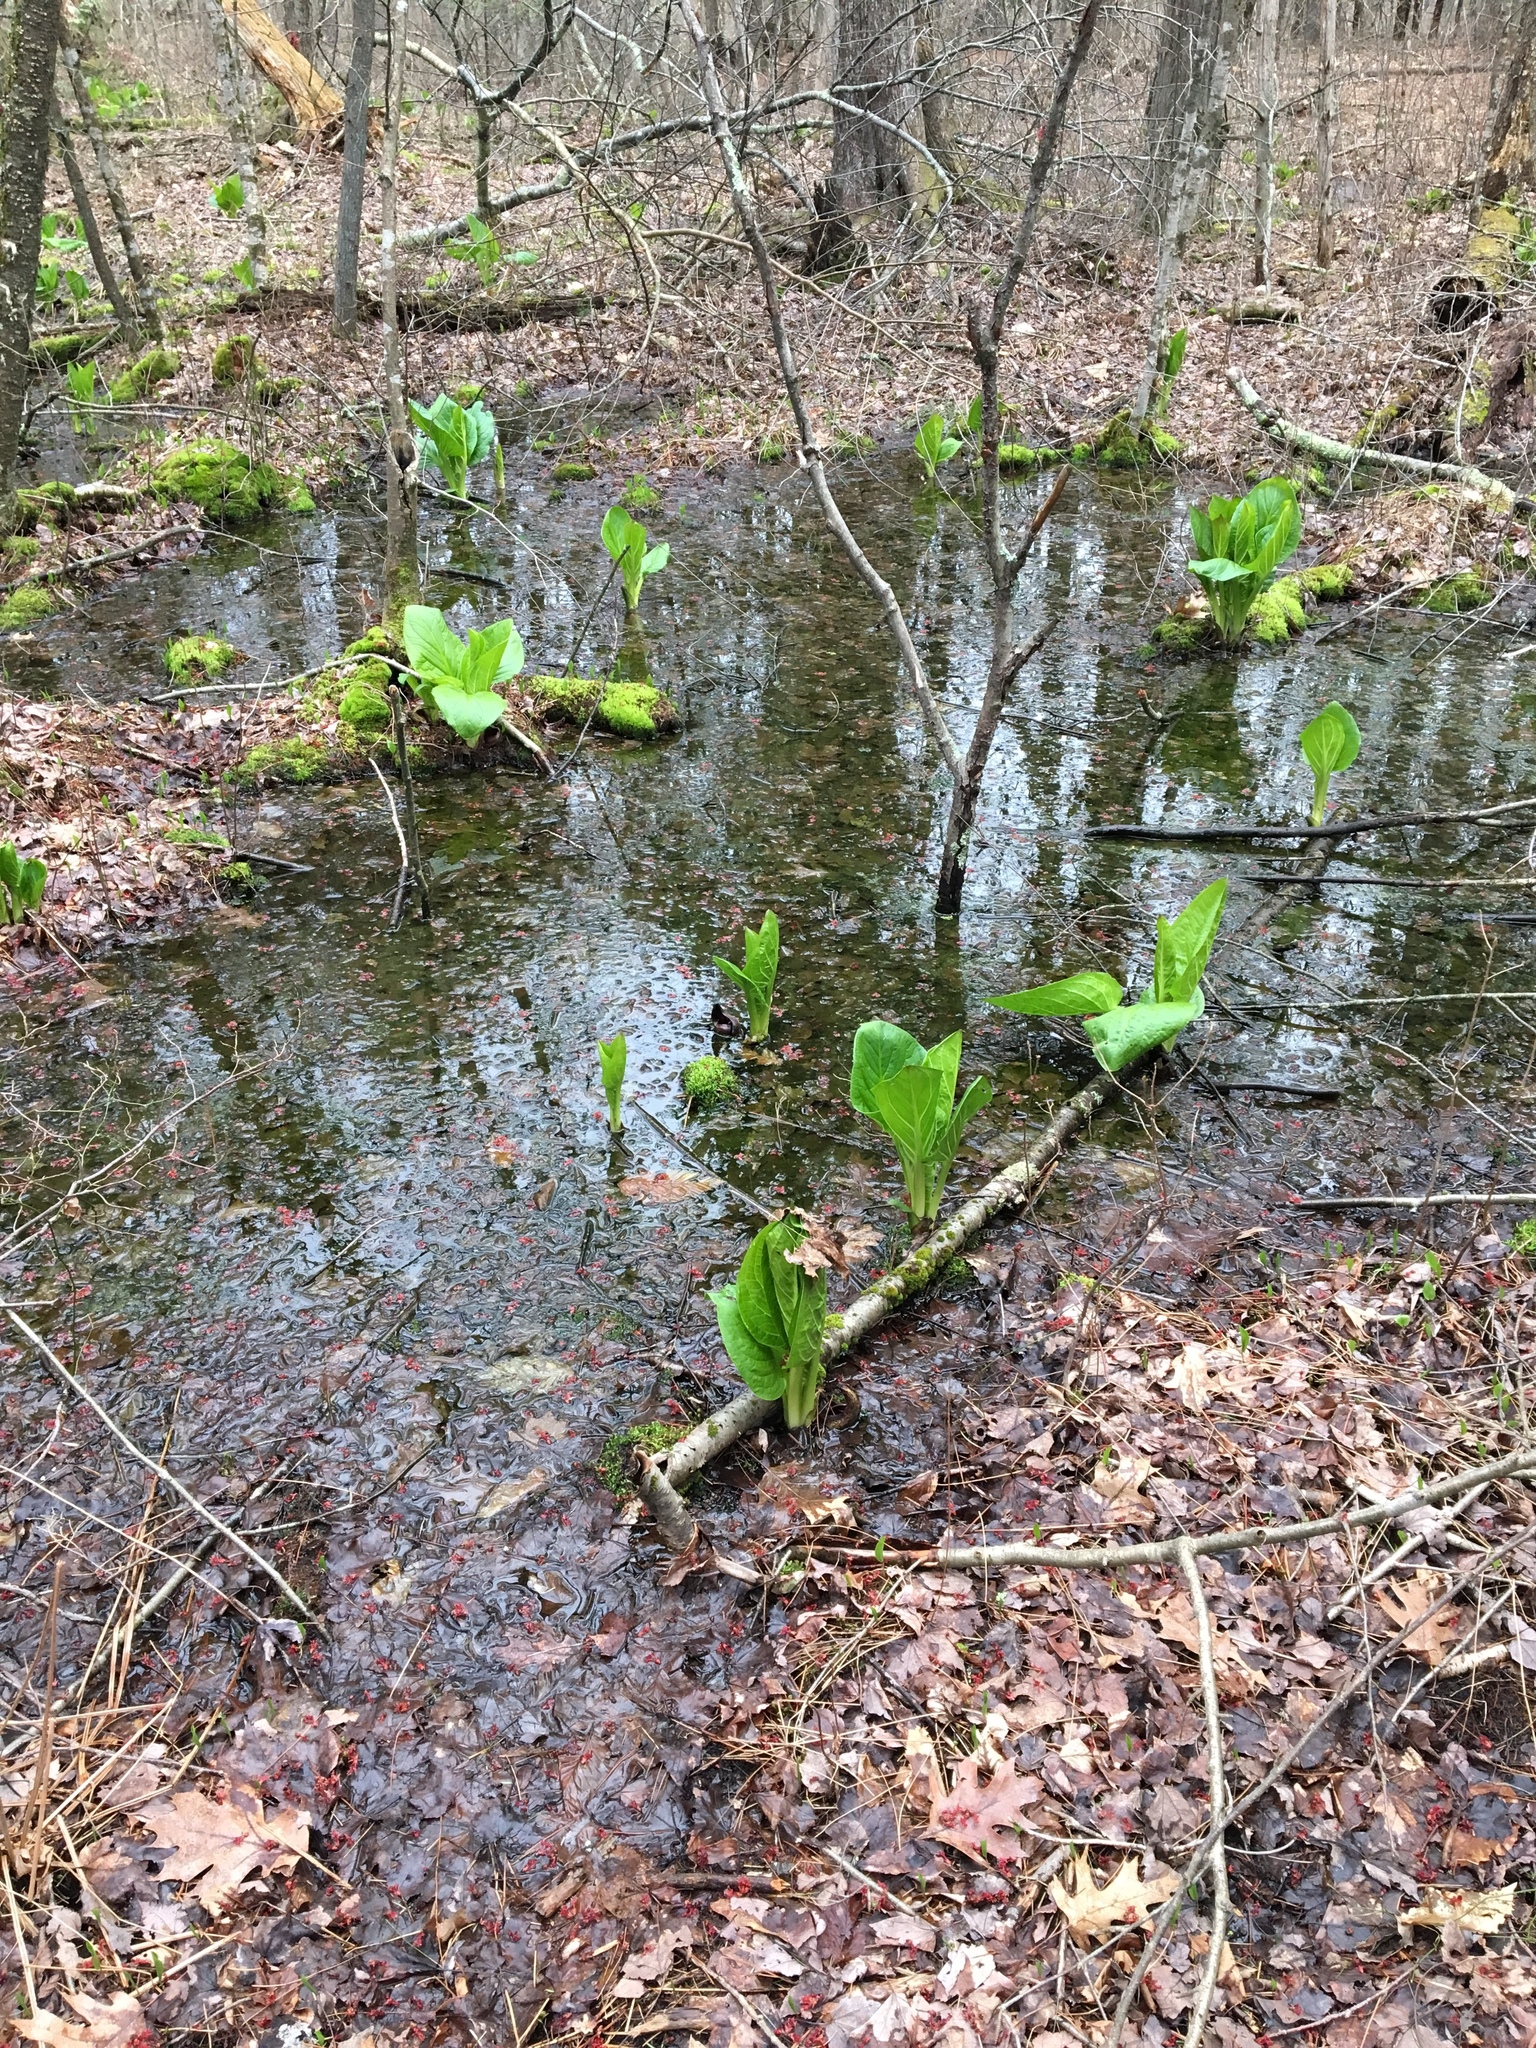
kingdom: Plantae
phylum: Tracheophyta
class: Liliopsida
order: Alismatales
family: Araceae
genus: Symplocarpus
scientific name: Symplocarpus foetidus
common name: Eastern skunk cabbage
